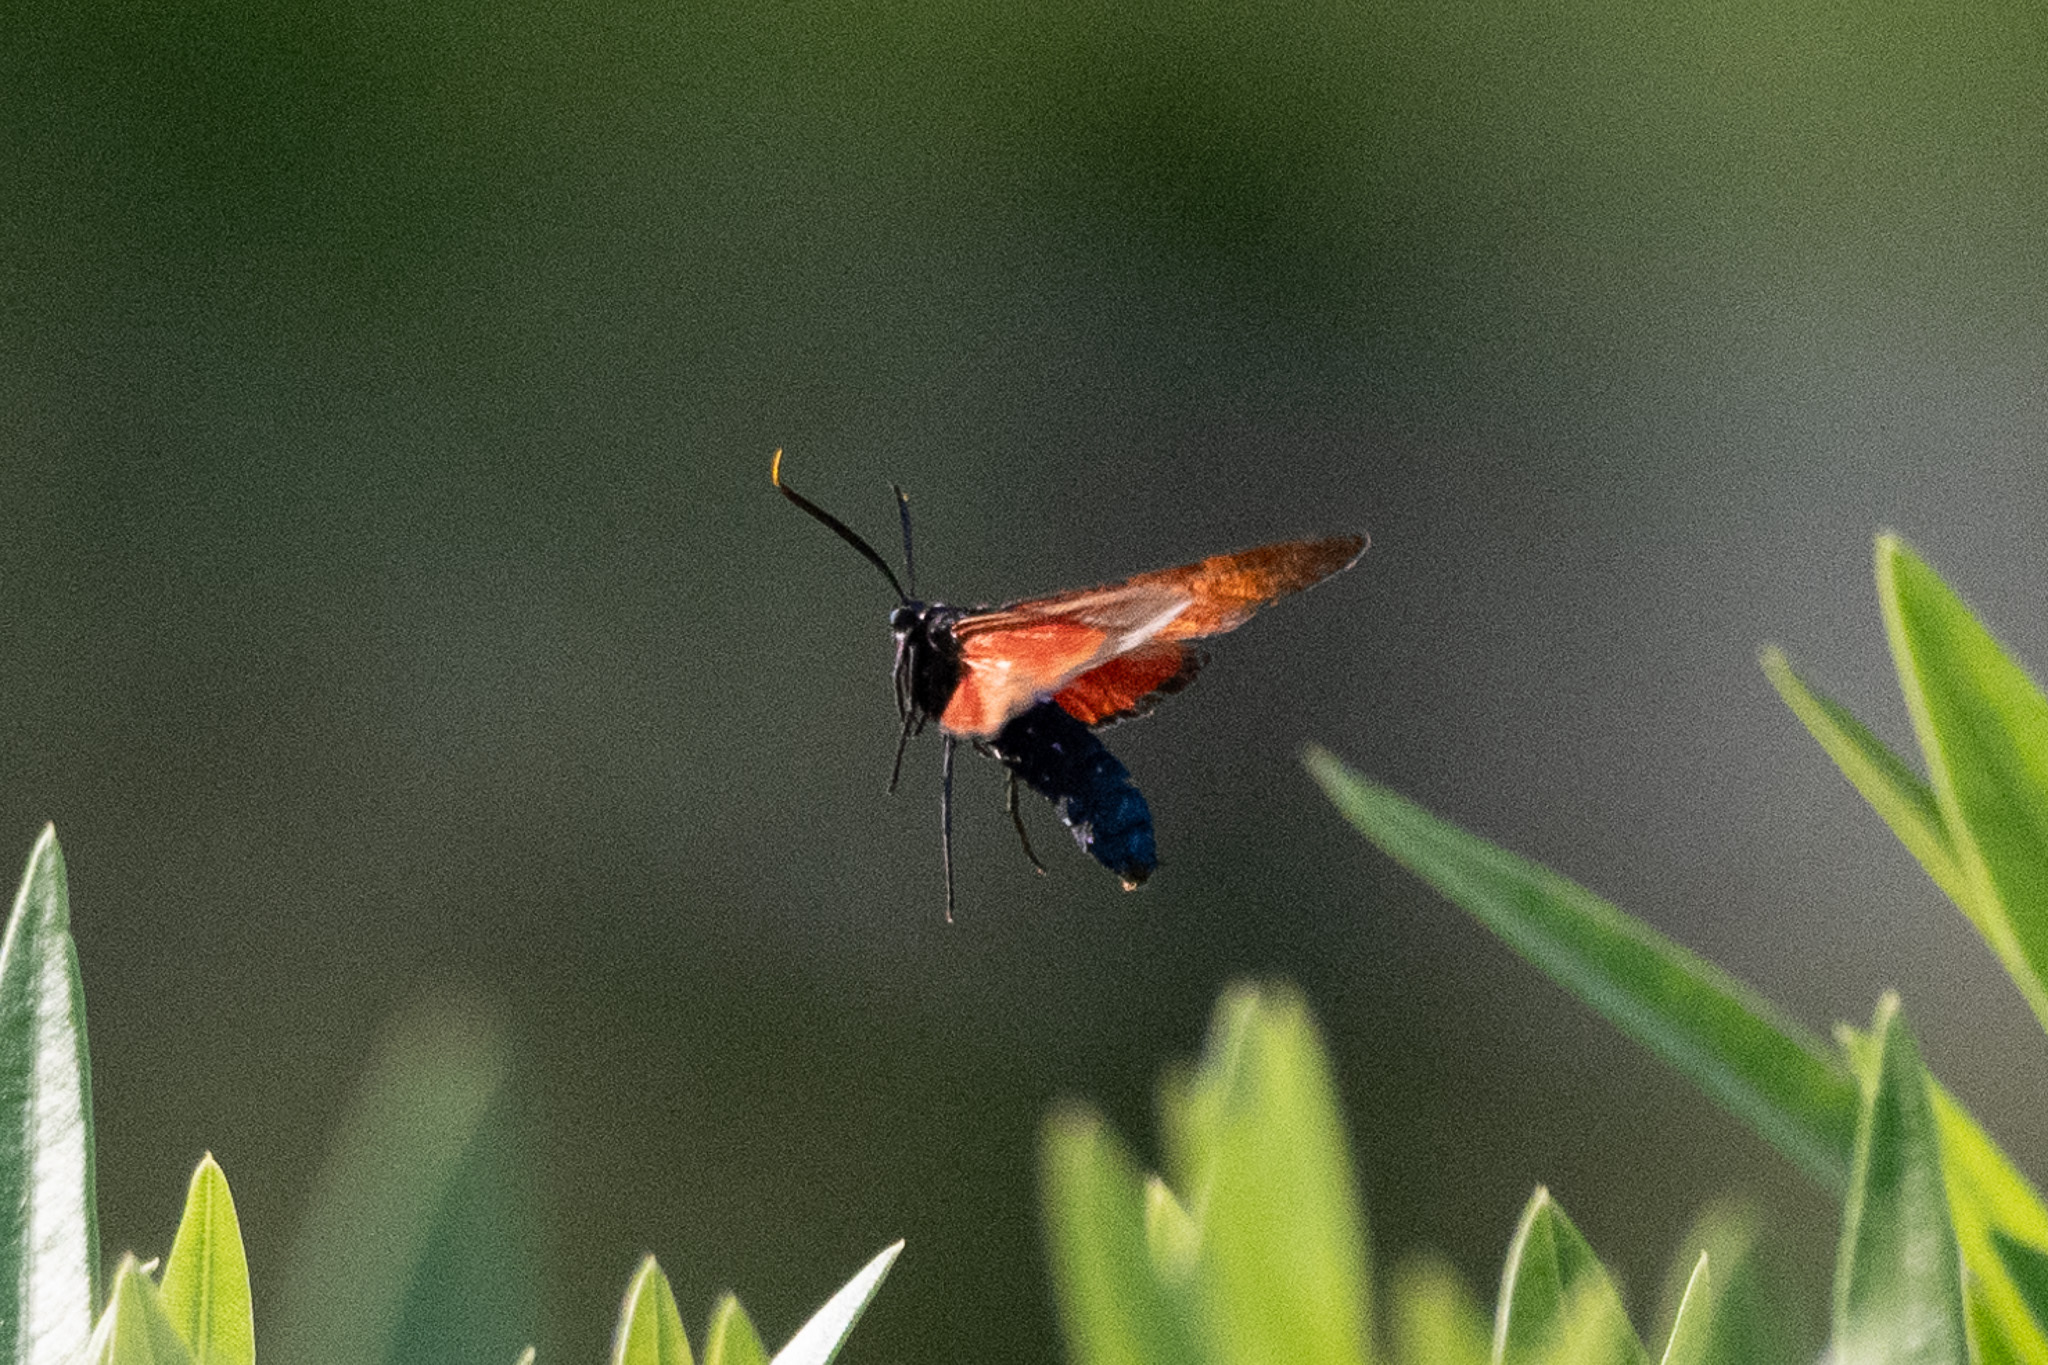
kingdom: Animalia
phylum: Arthropoda
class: Insecta
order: Lepidoptera
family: Erebidae
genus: Empyreuma
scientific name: Empyreuma pugione
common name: Spotted oleander caterpillar moth
